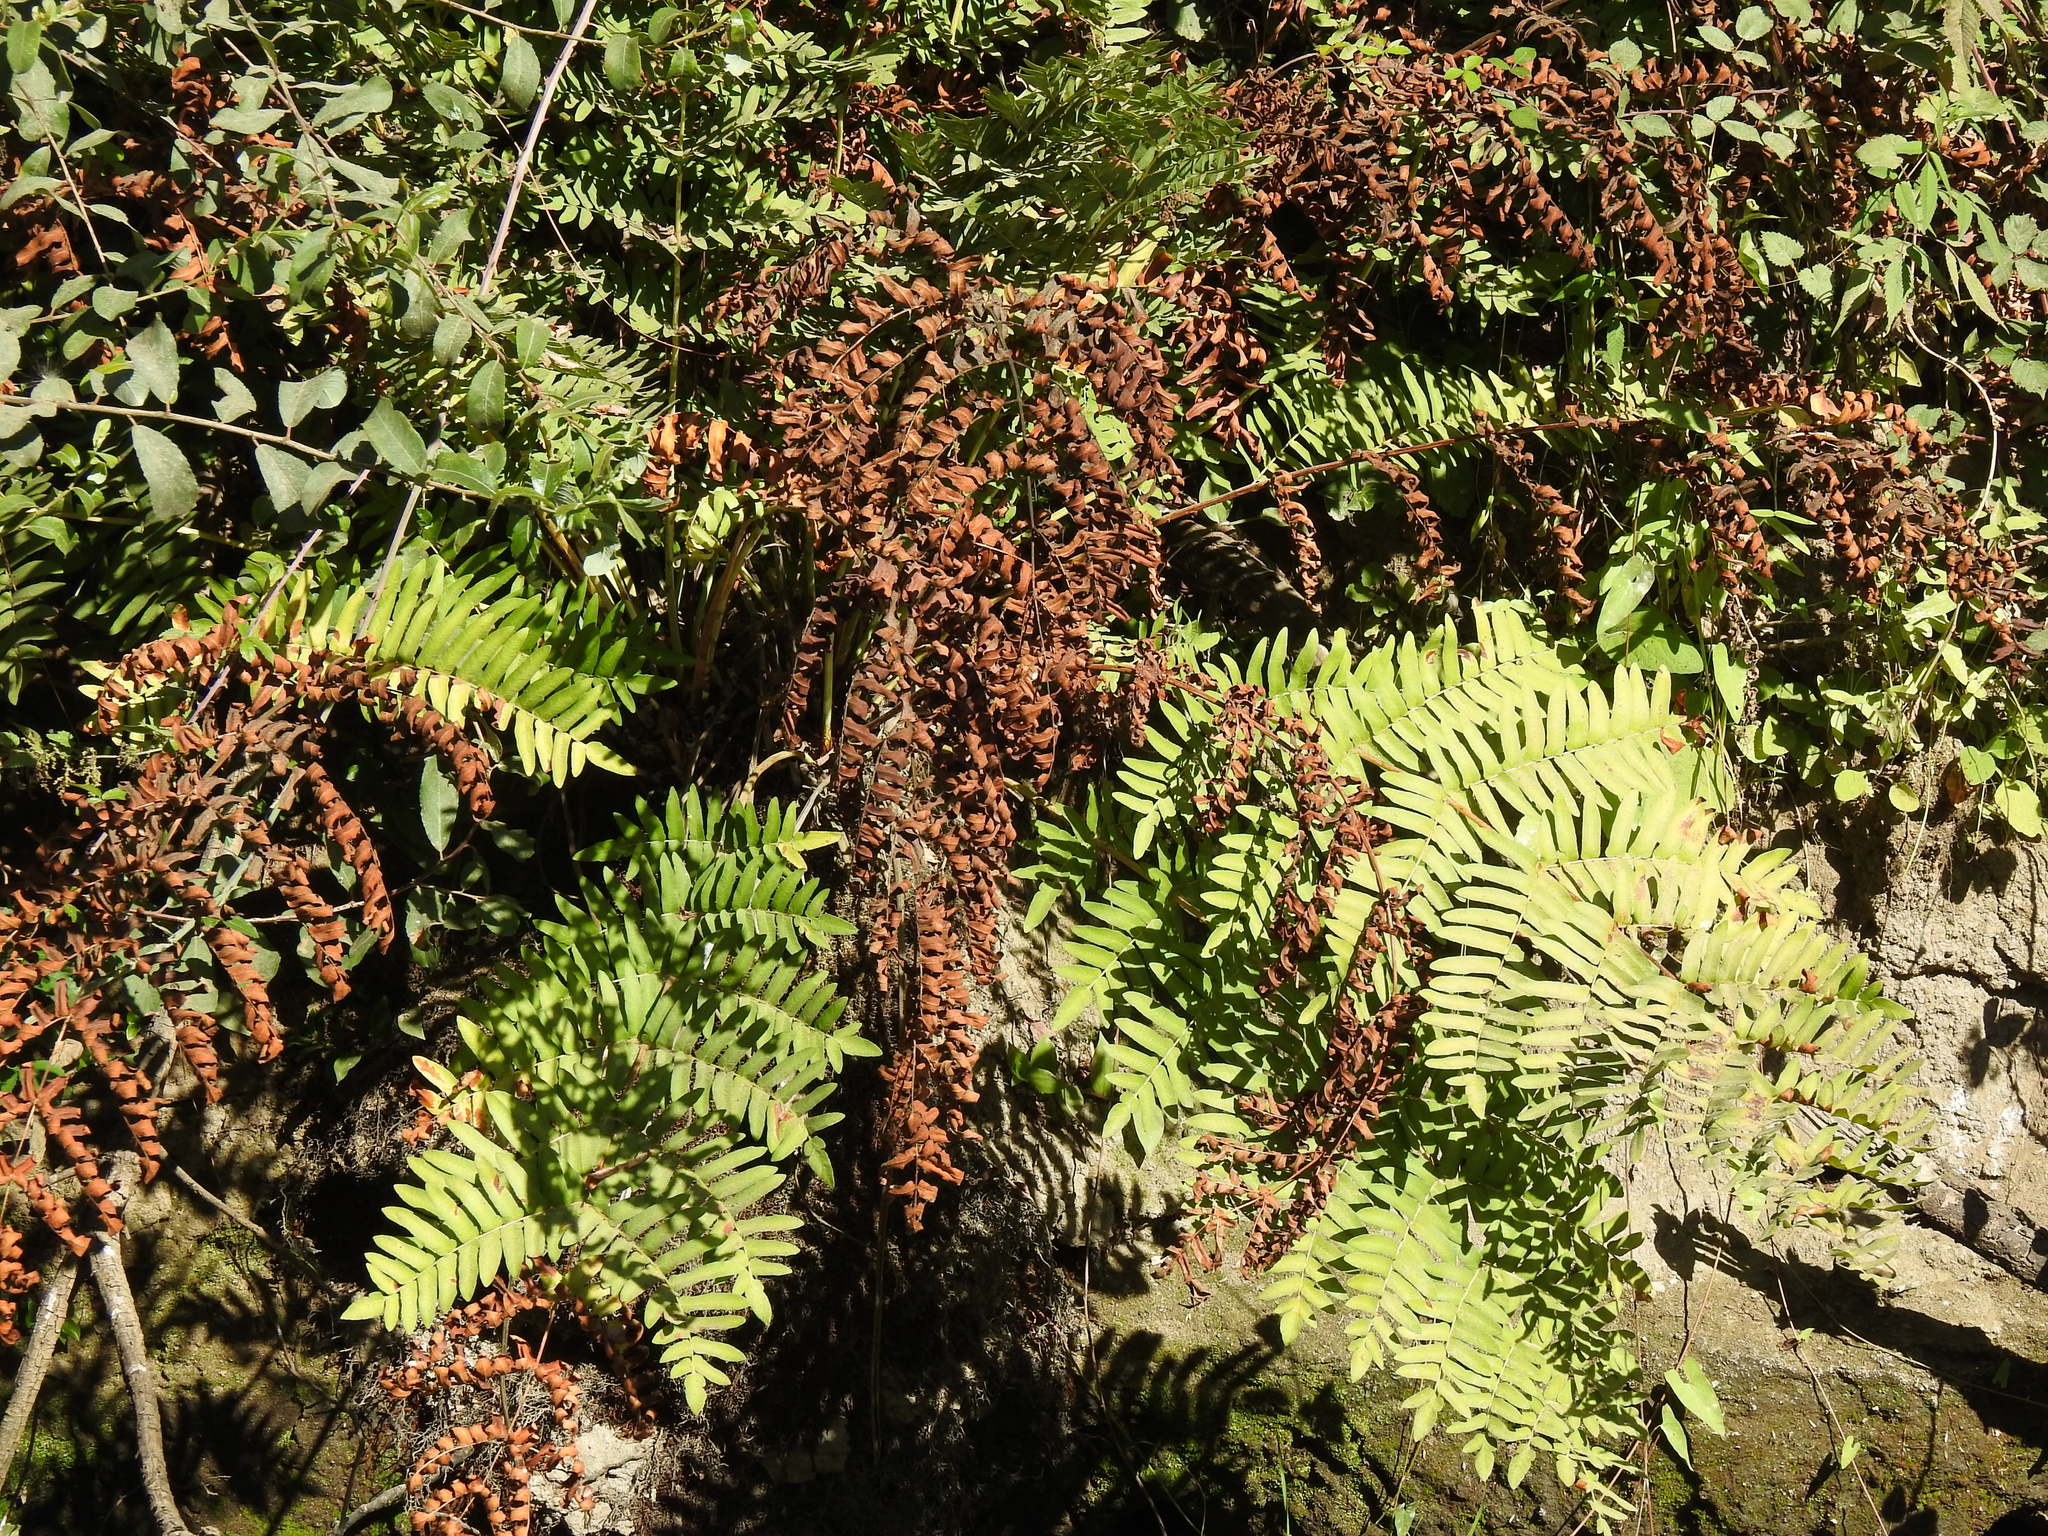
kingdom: Plantae
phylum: Tracheophyta
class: Polypodiopsida
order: Osmundales
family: Osmundaceae
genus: Osmunda
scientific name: Osmunda regalis
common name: Royal fern
